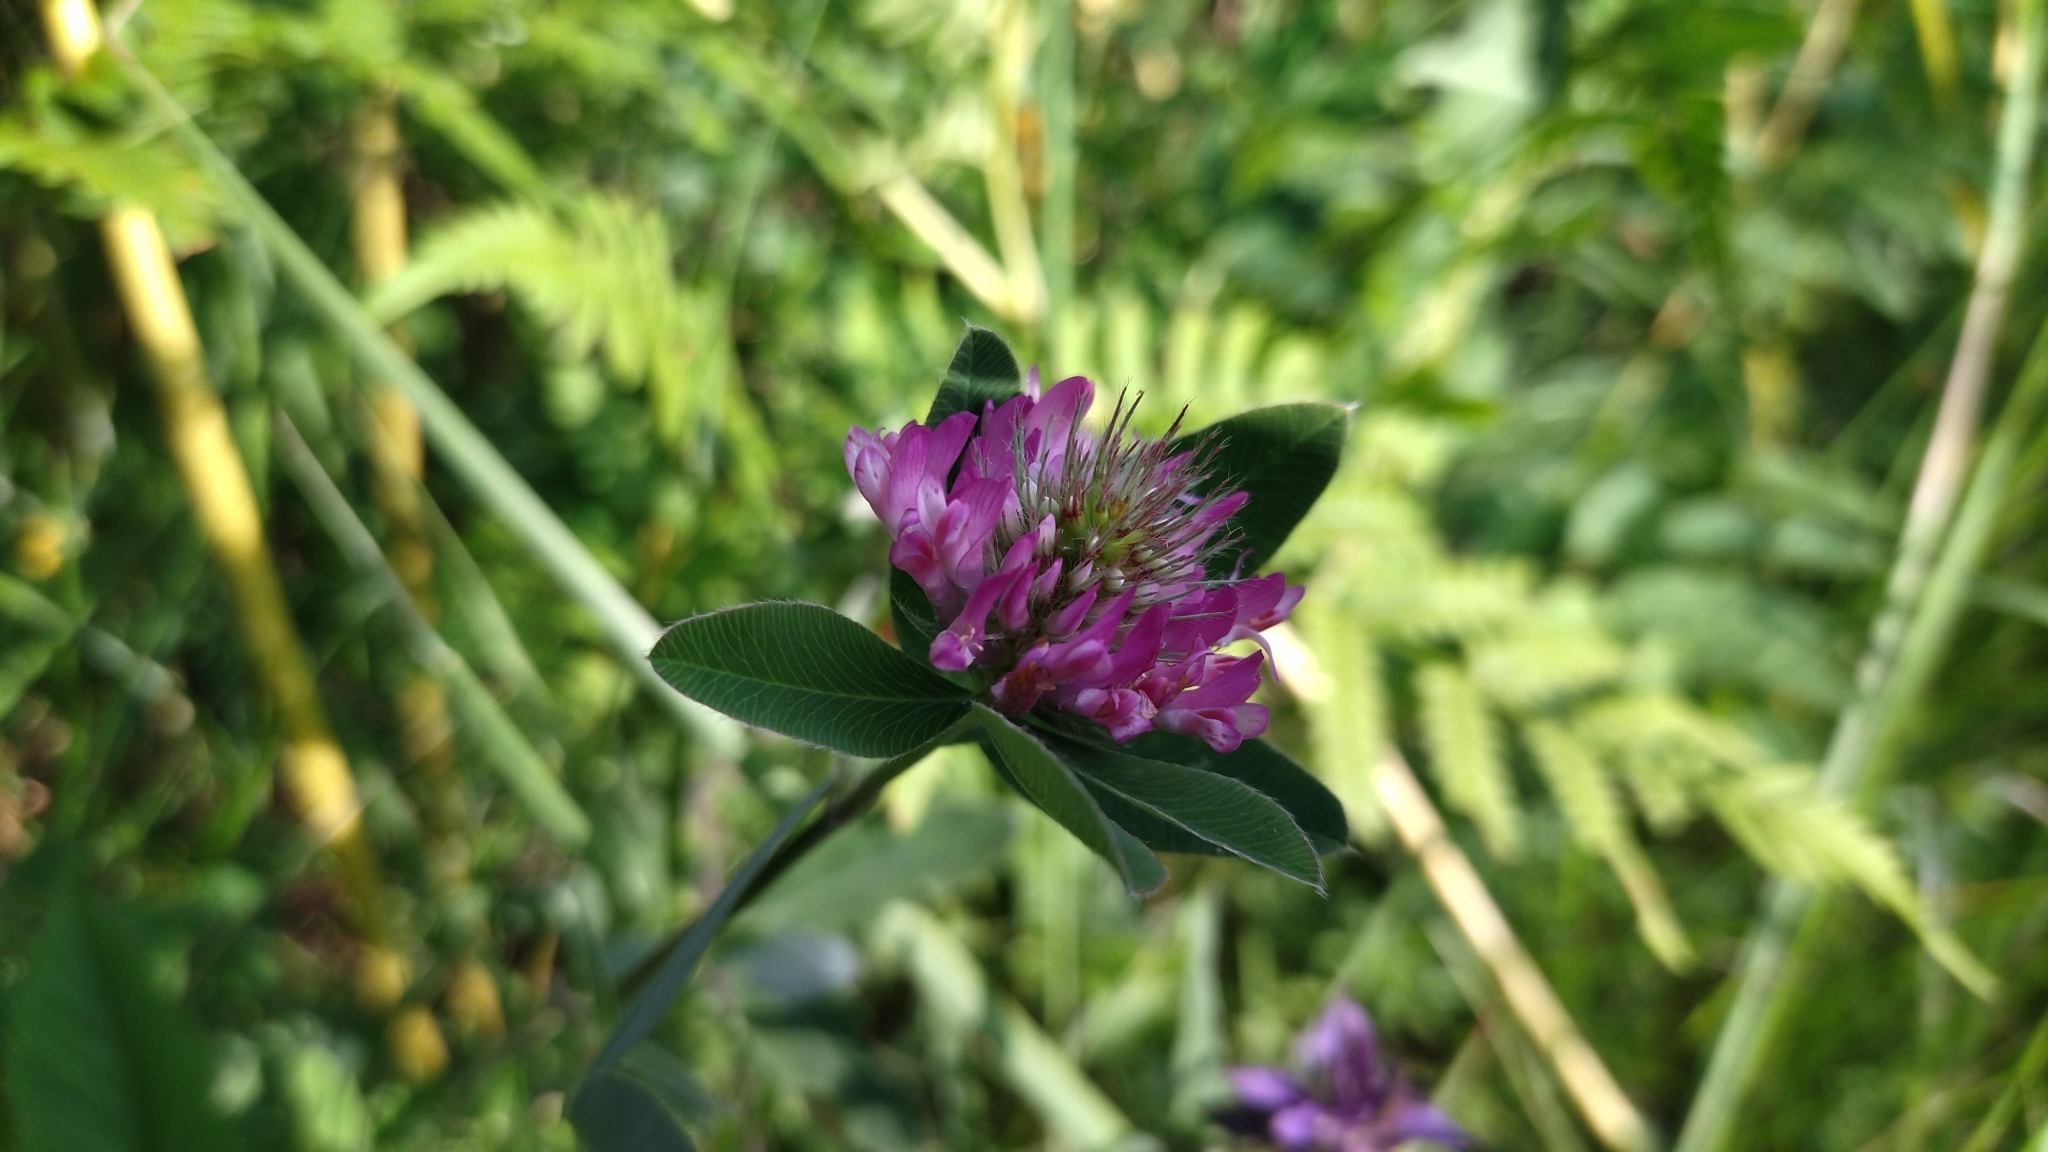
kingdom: Plantae
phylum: Tracheophyta
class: Magnoliopsida
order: Fabales
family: Fabaceae
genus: Trifolium
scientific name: Trifolium medium
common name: Zigzag clover
